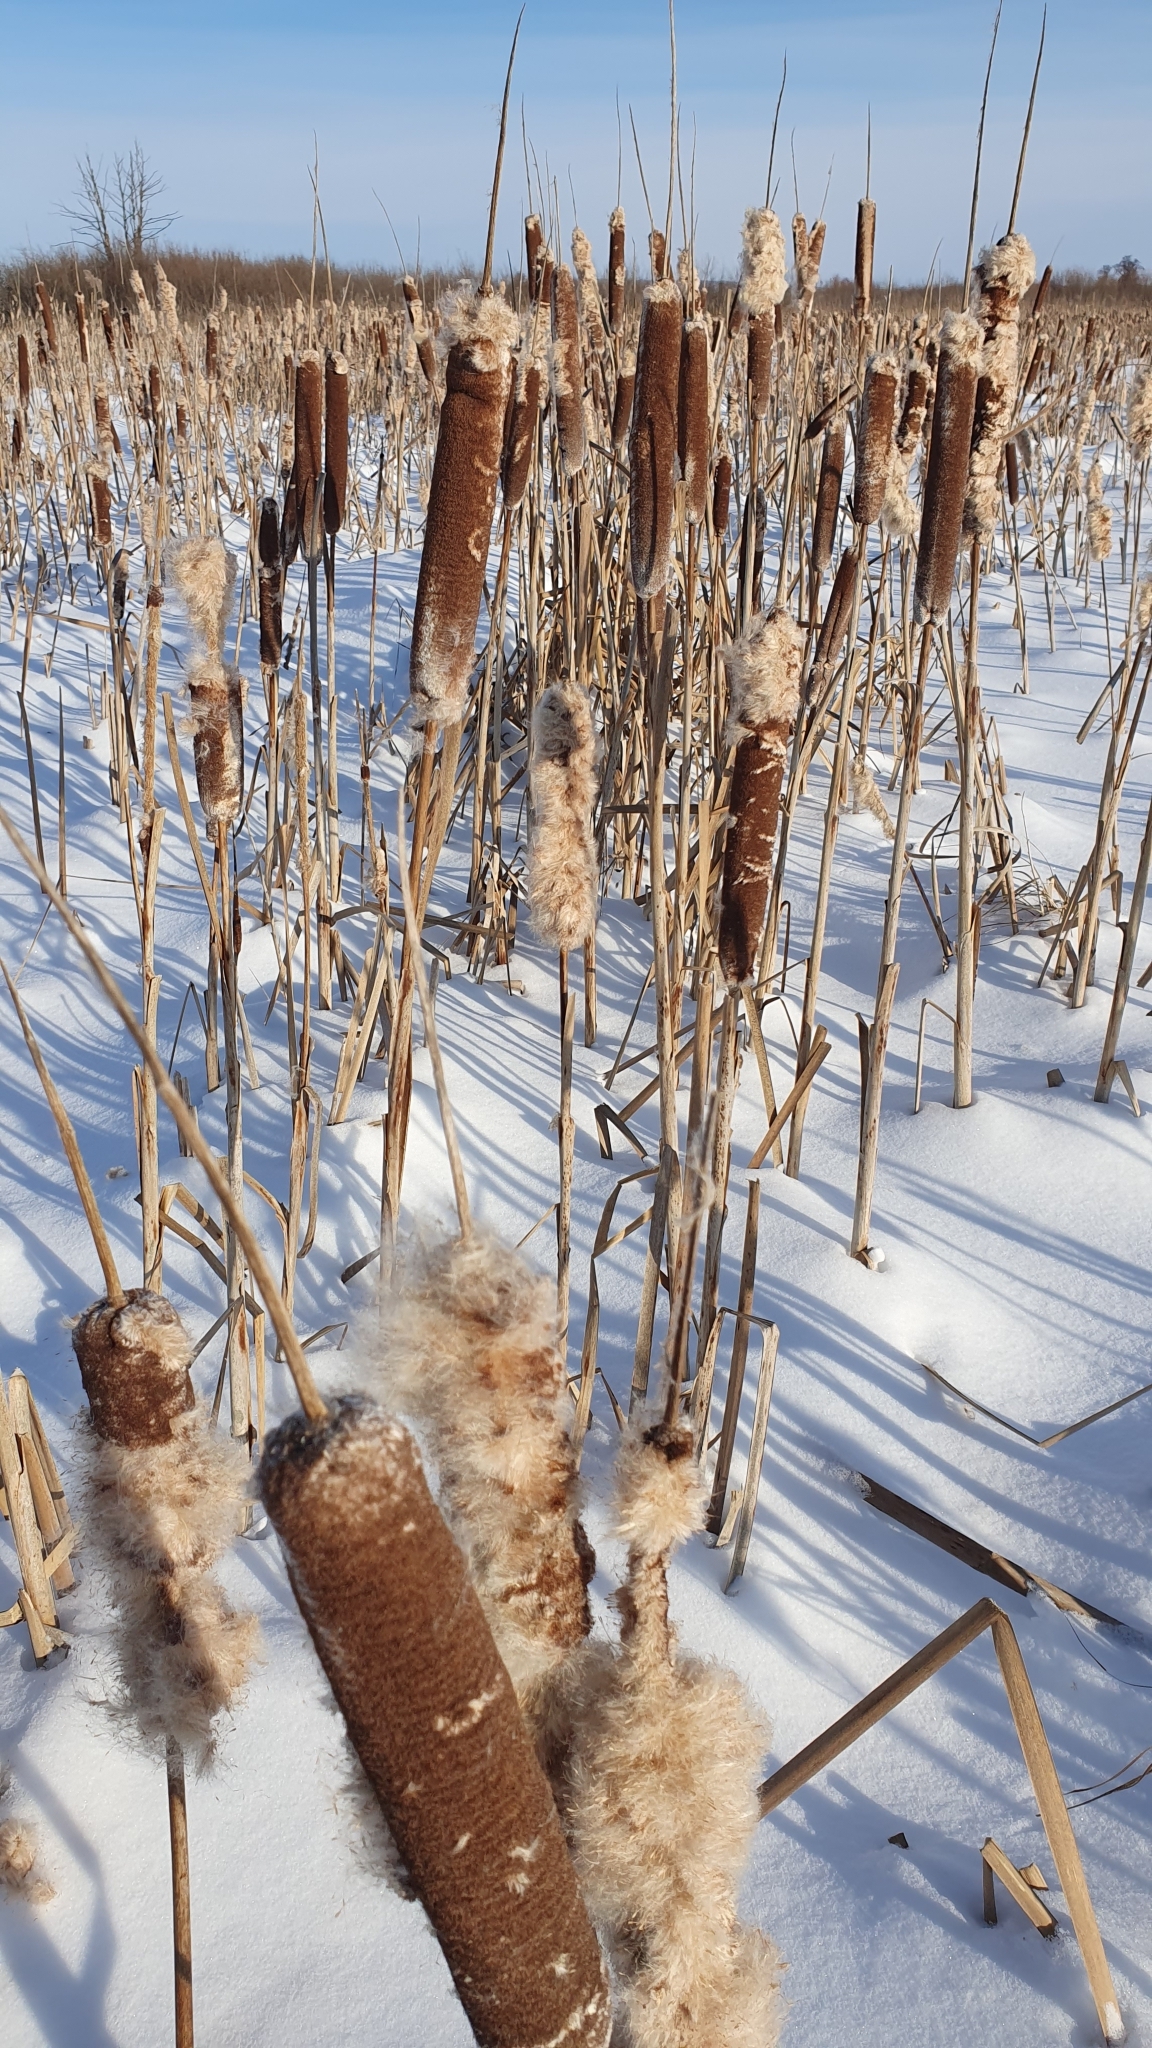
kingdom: Plantae
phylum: Tracheophyta
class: Liliopsida
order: Poales
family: Typhaceae
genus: Typha
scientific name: Typha latifolia
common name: Broadleaf cattail
